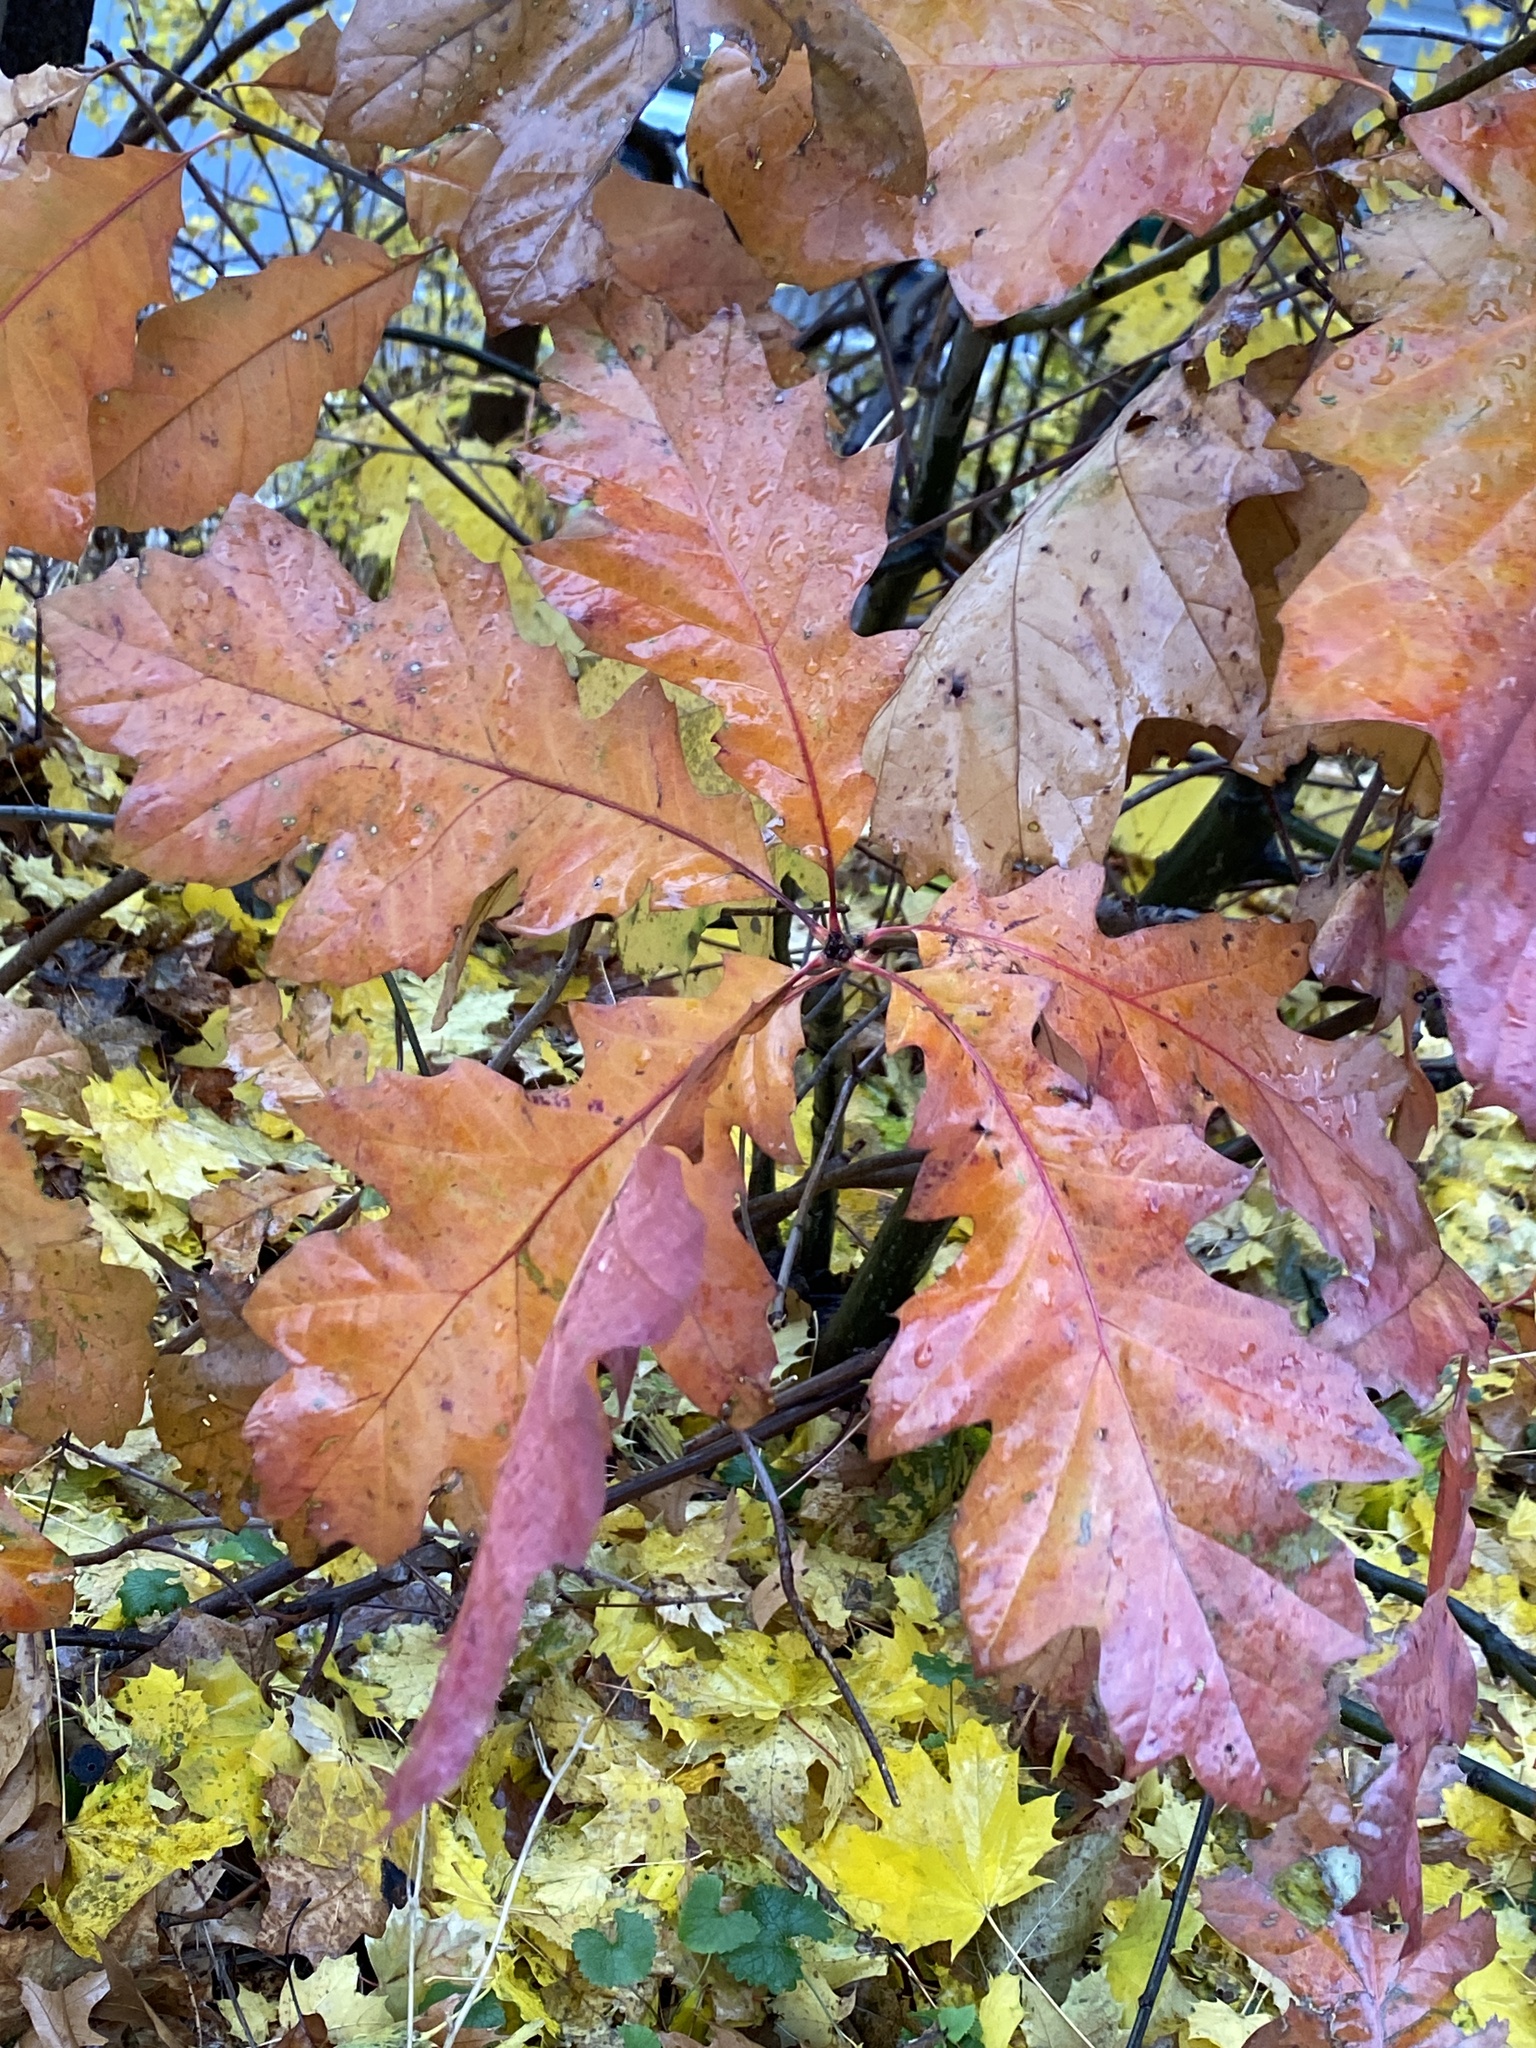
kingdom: Plantae
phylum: Tracheophyta
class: Magnoliopsida
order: Fagales
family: Fagaceae
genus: Quercus
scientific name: Quercus rubra
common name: Red oak
